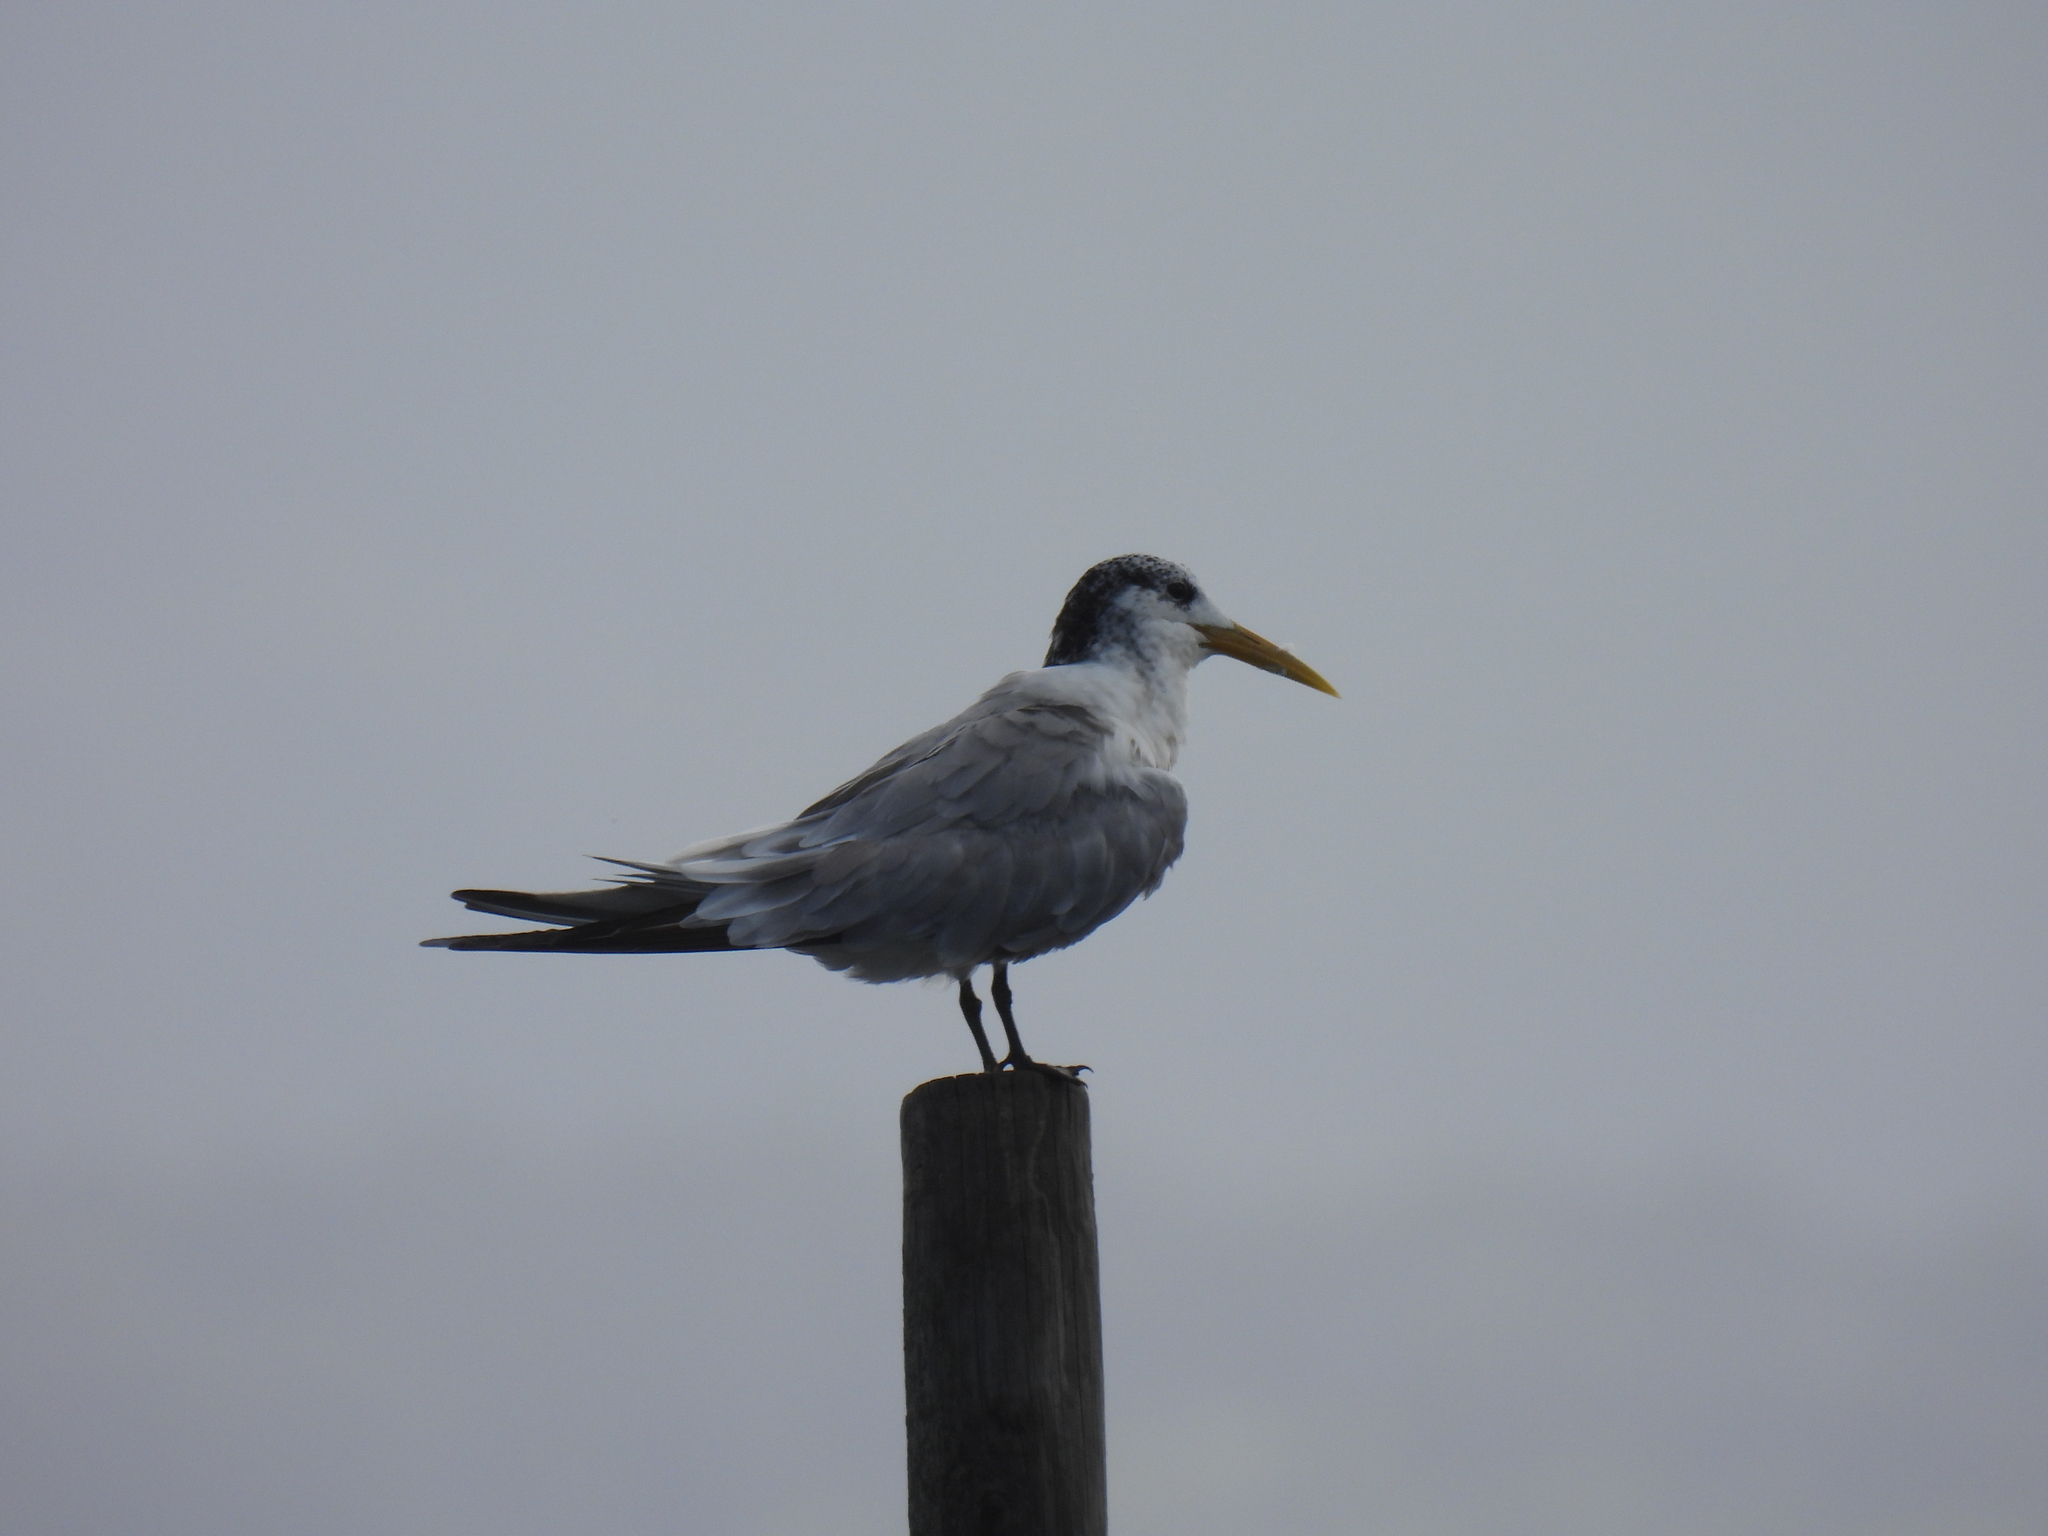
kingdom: Animalia
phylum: Chordata
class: Aves
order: Charadriiformes
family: Laridae
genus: Thalasseus
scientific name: Thalasseus bergii
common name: Greater crested tern
